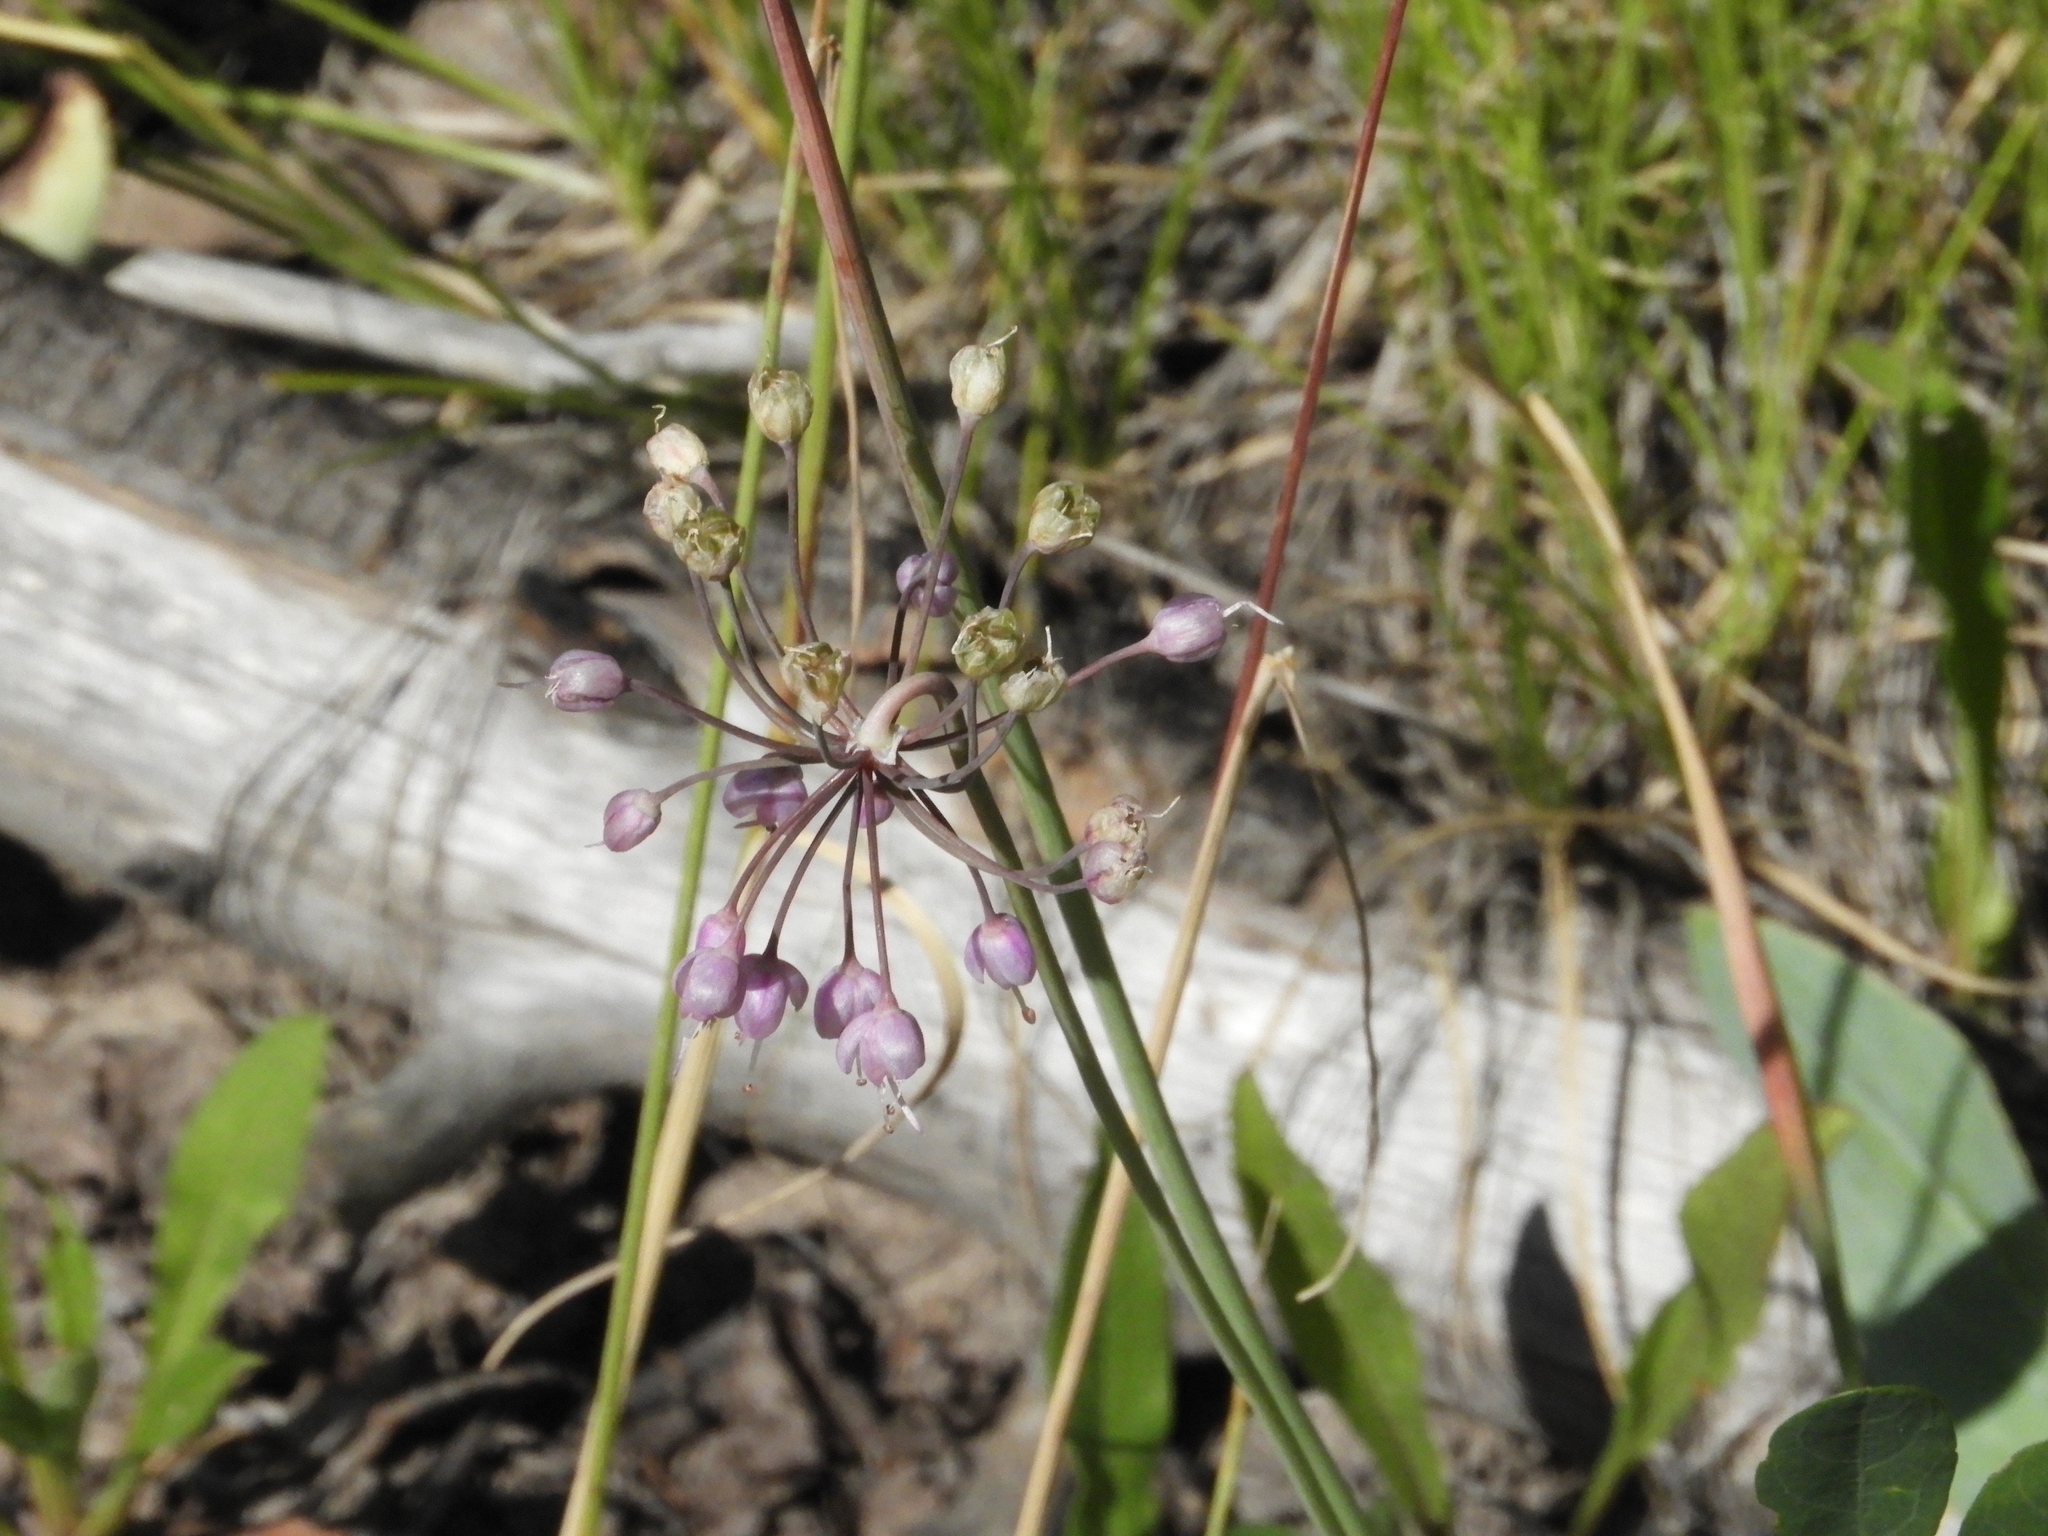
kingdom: Plantae
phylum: Tracheophyta
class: Liliopsida
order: Asparagales
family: Amaryllidaceae
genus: Allium
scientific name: Allium cernuum
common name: Nodding onion
